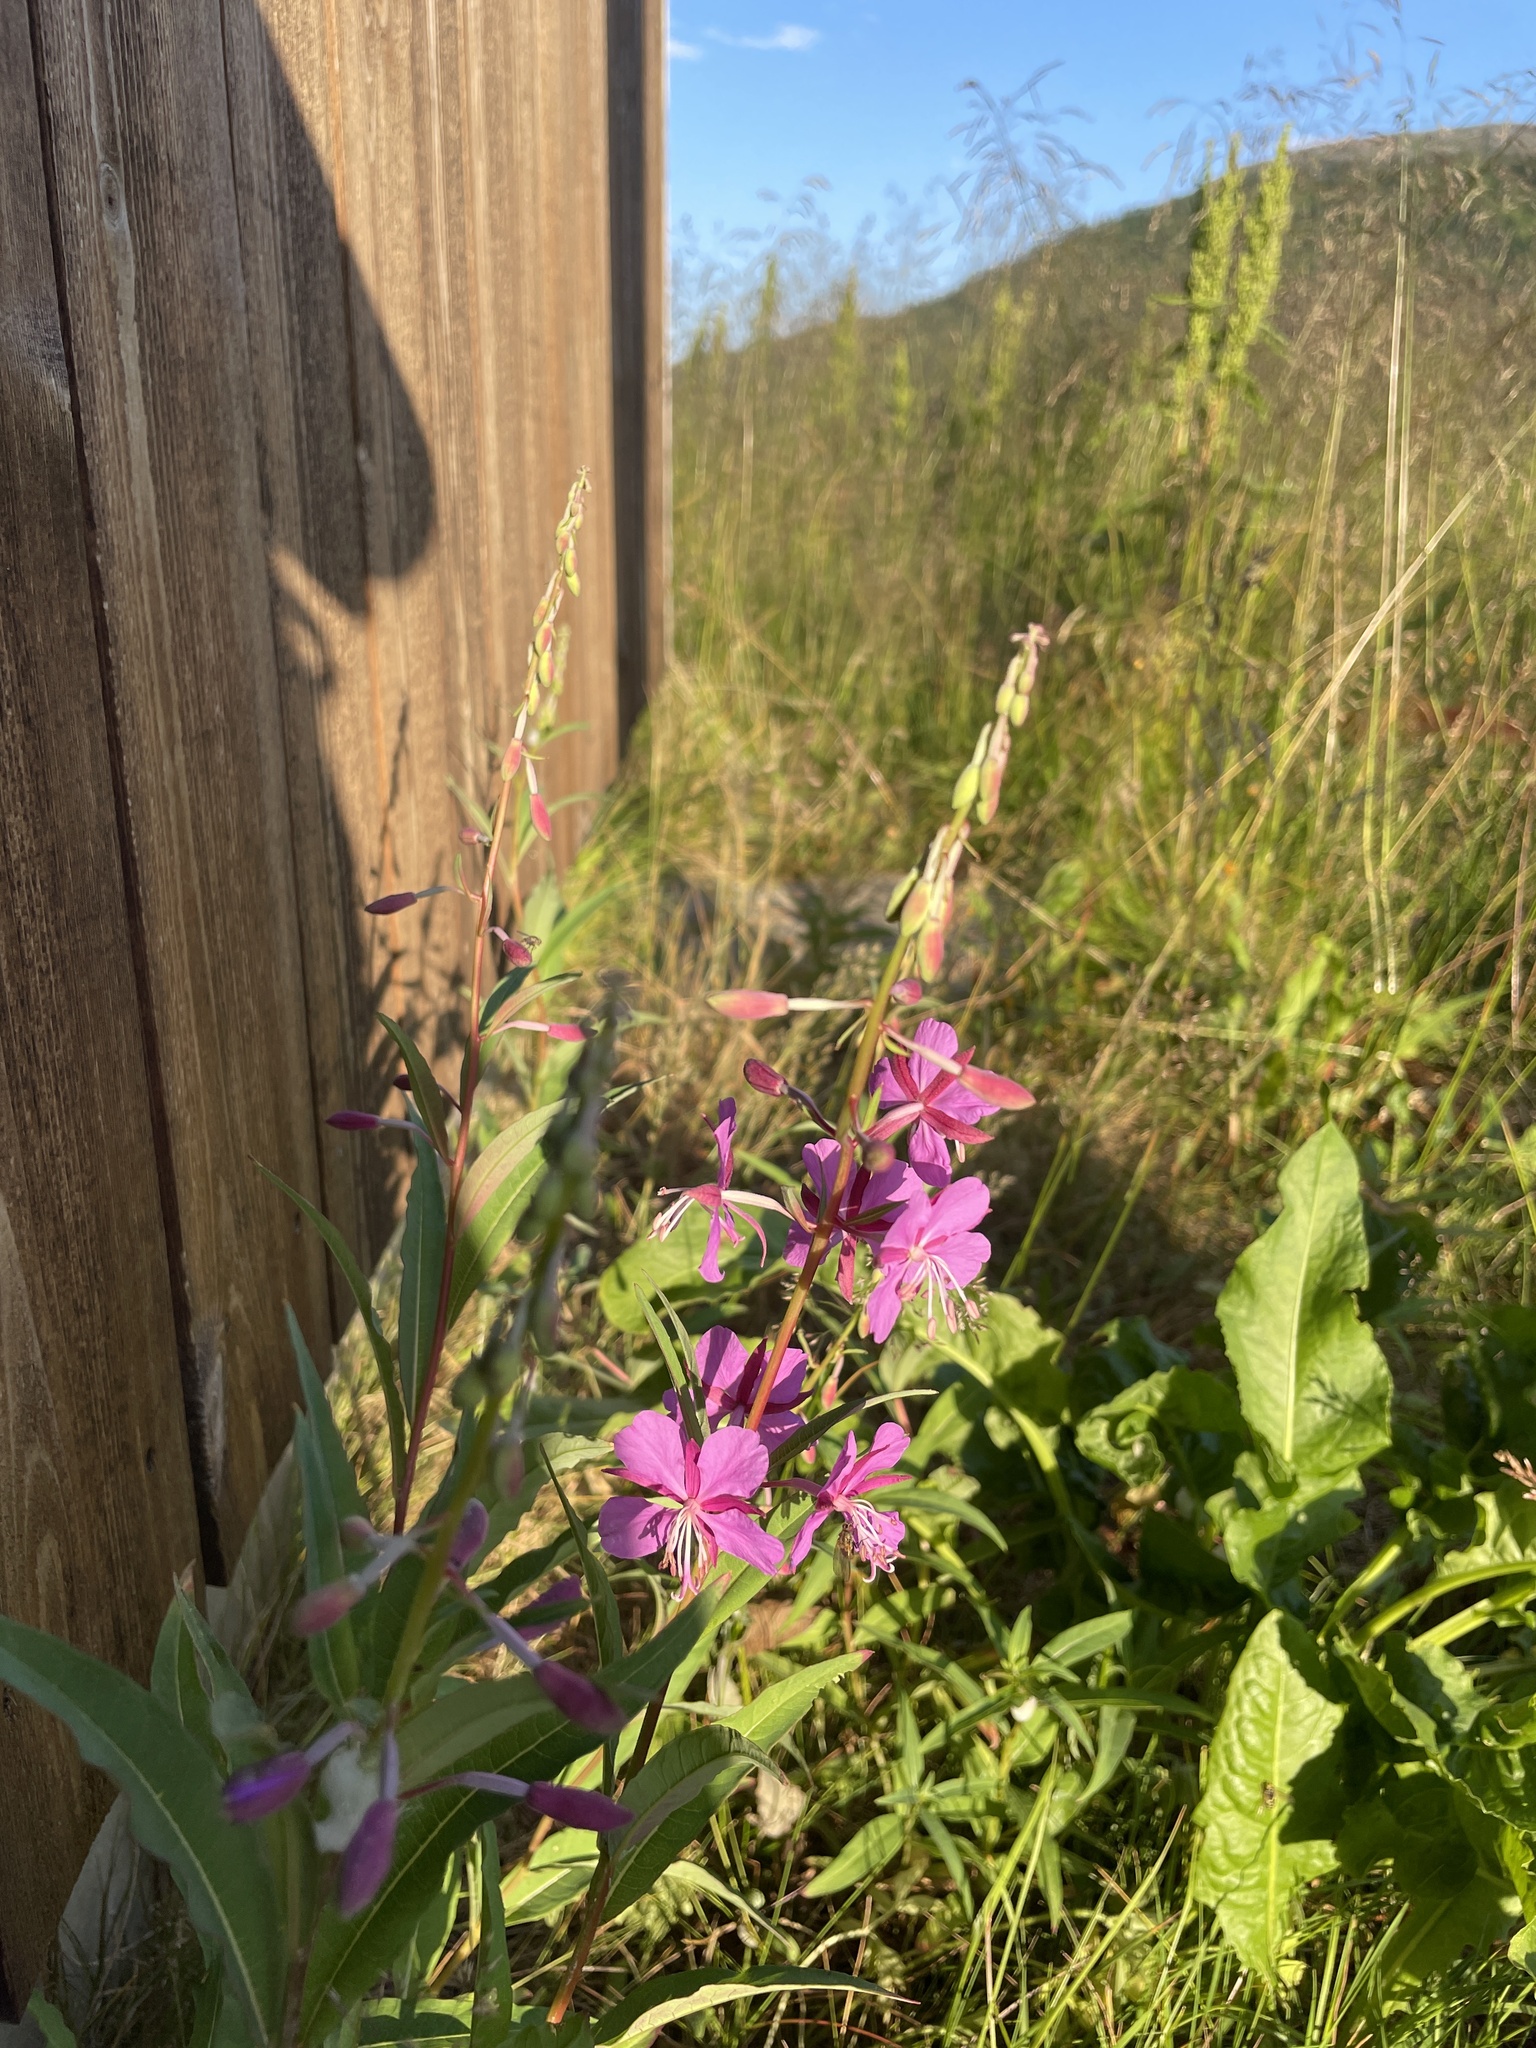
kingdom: Plantae
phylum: Tracheophyta
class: Magnoliopsida
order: Myrtales
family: Onagraceae
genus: Chamaenerion
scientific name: Chamaenerion angustifolium
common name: Fireweed
